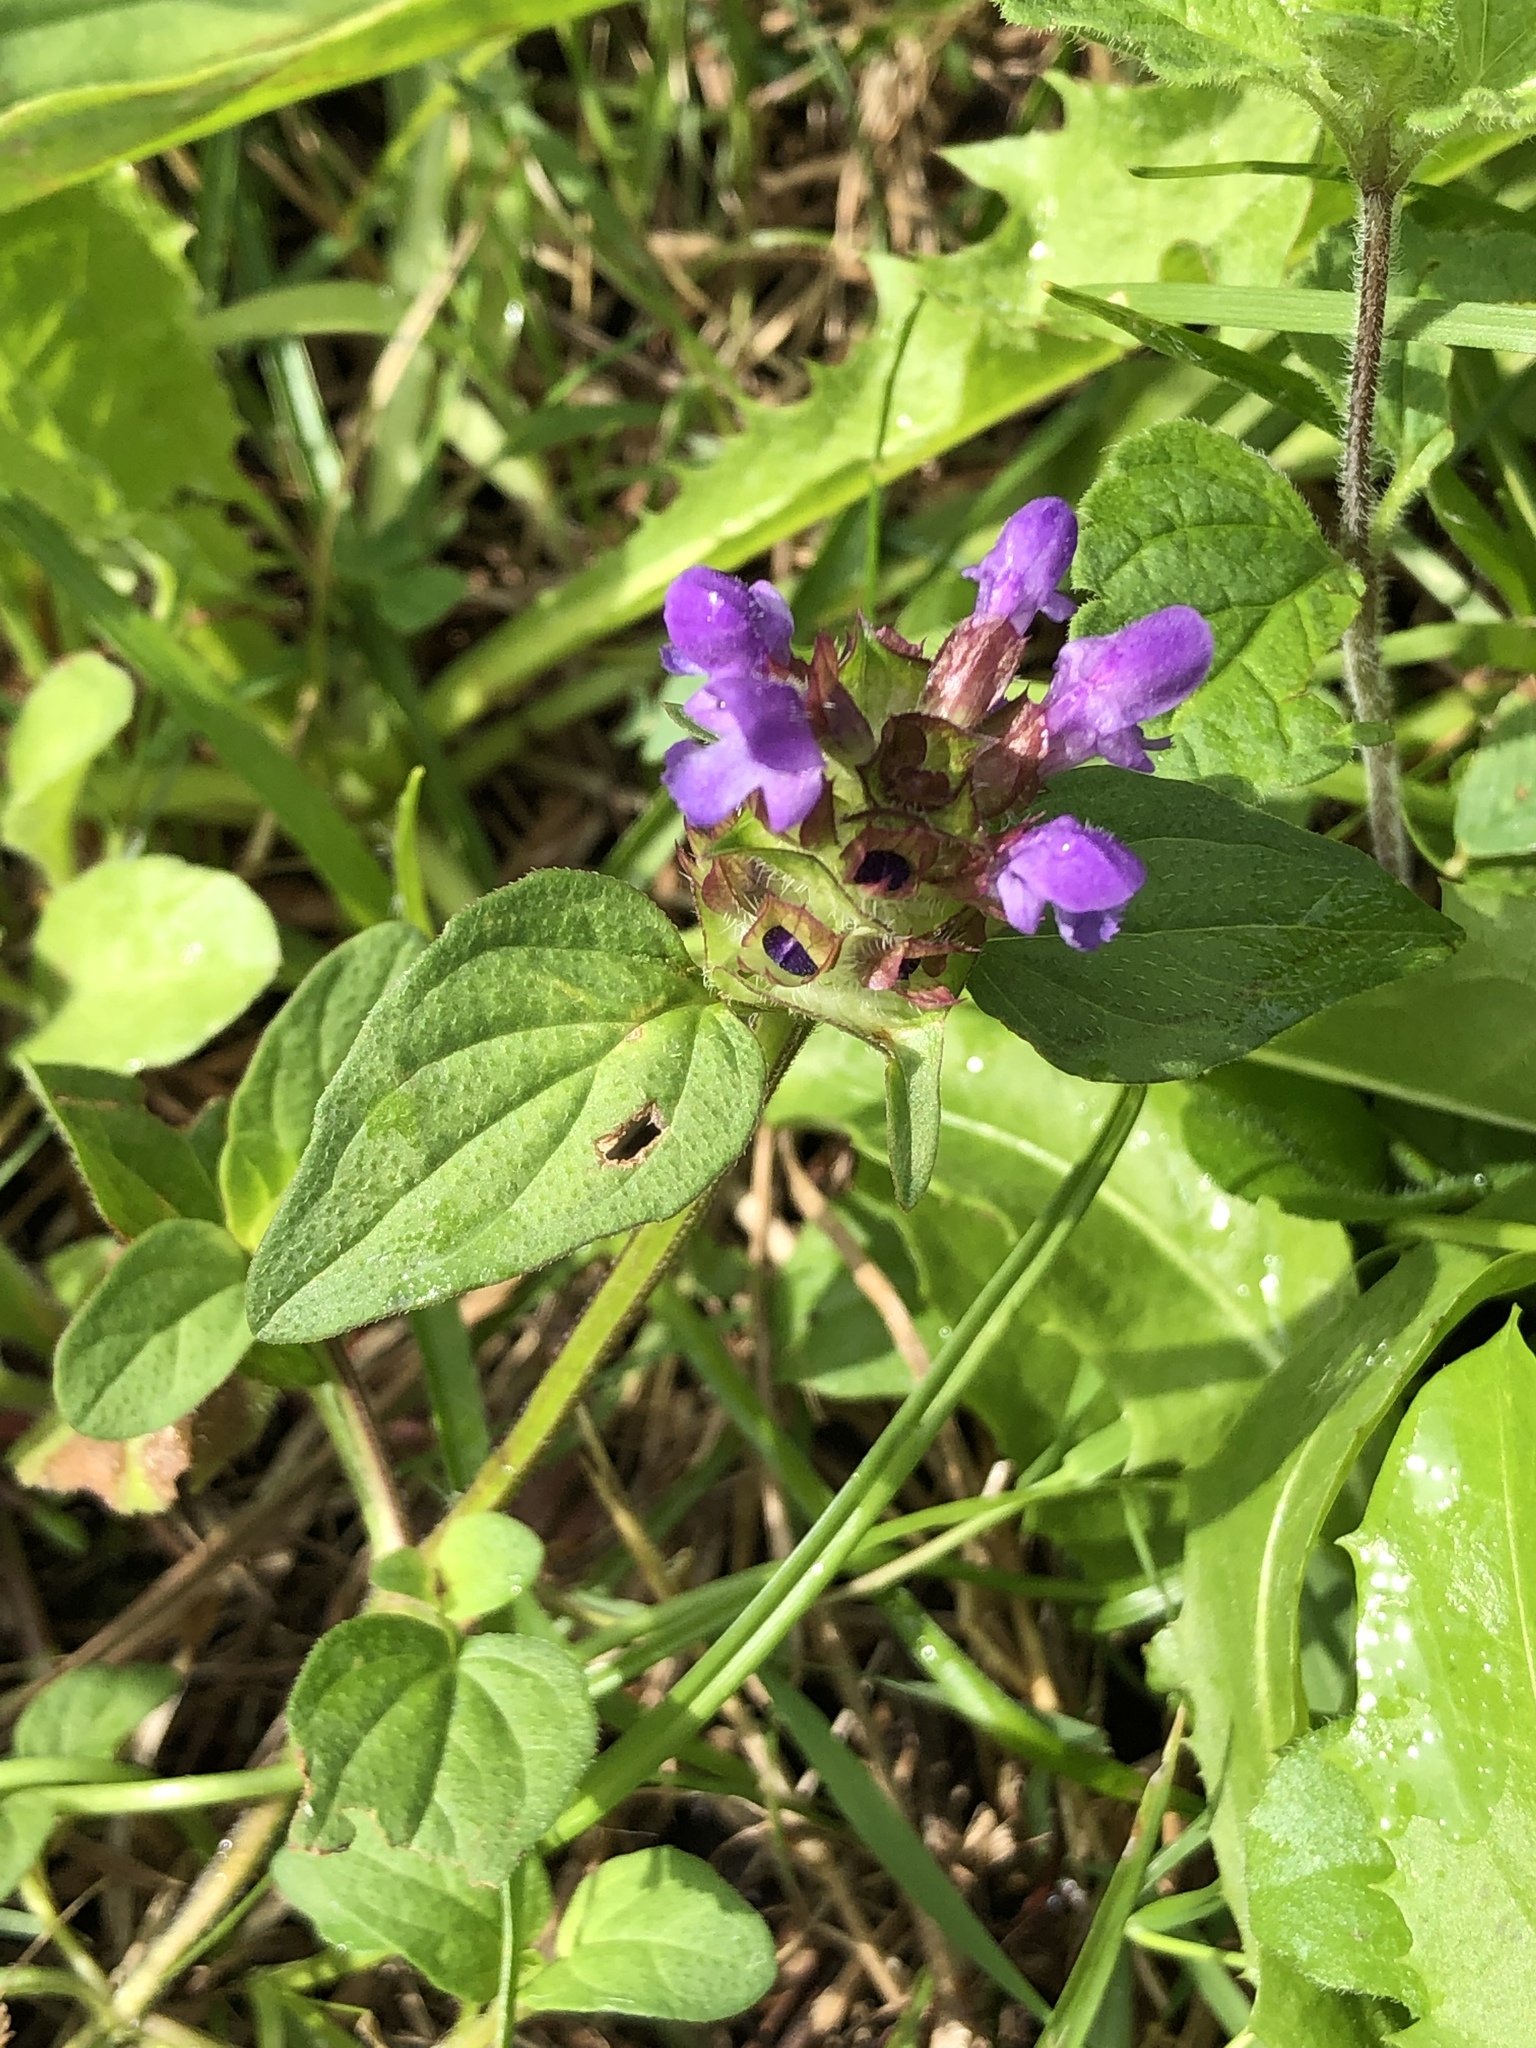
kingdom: Plantae
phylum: Tracheophyta
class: Magnoliopsida
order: Lamiales
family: Lamiaceae
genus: Prunella
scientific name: Prunella vulgaris
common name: Heal-all
